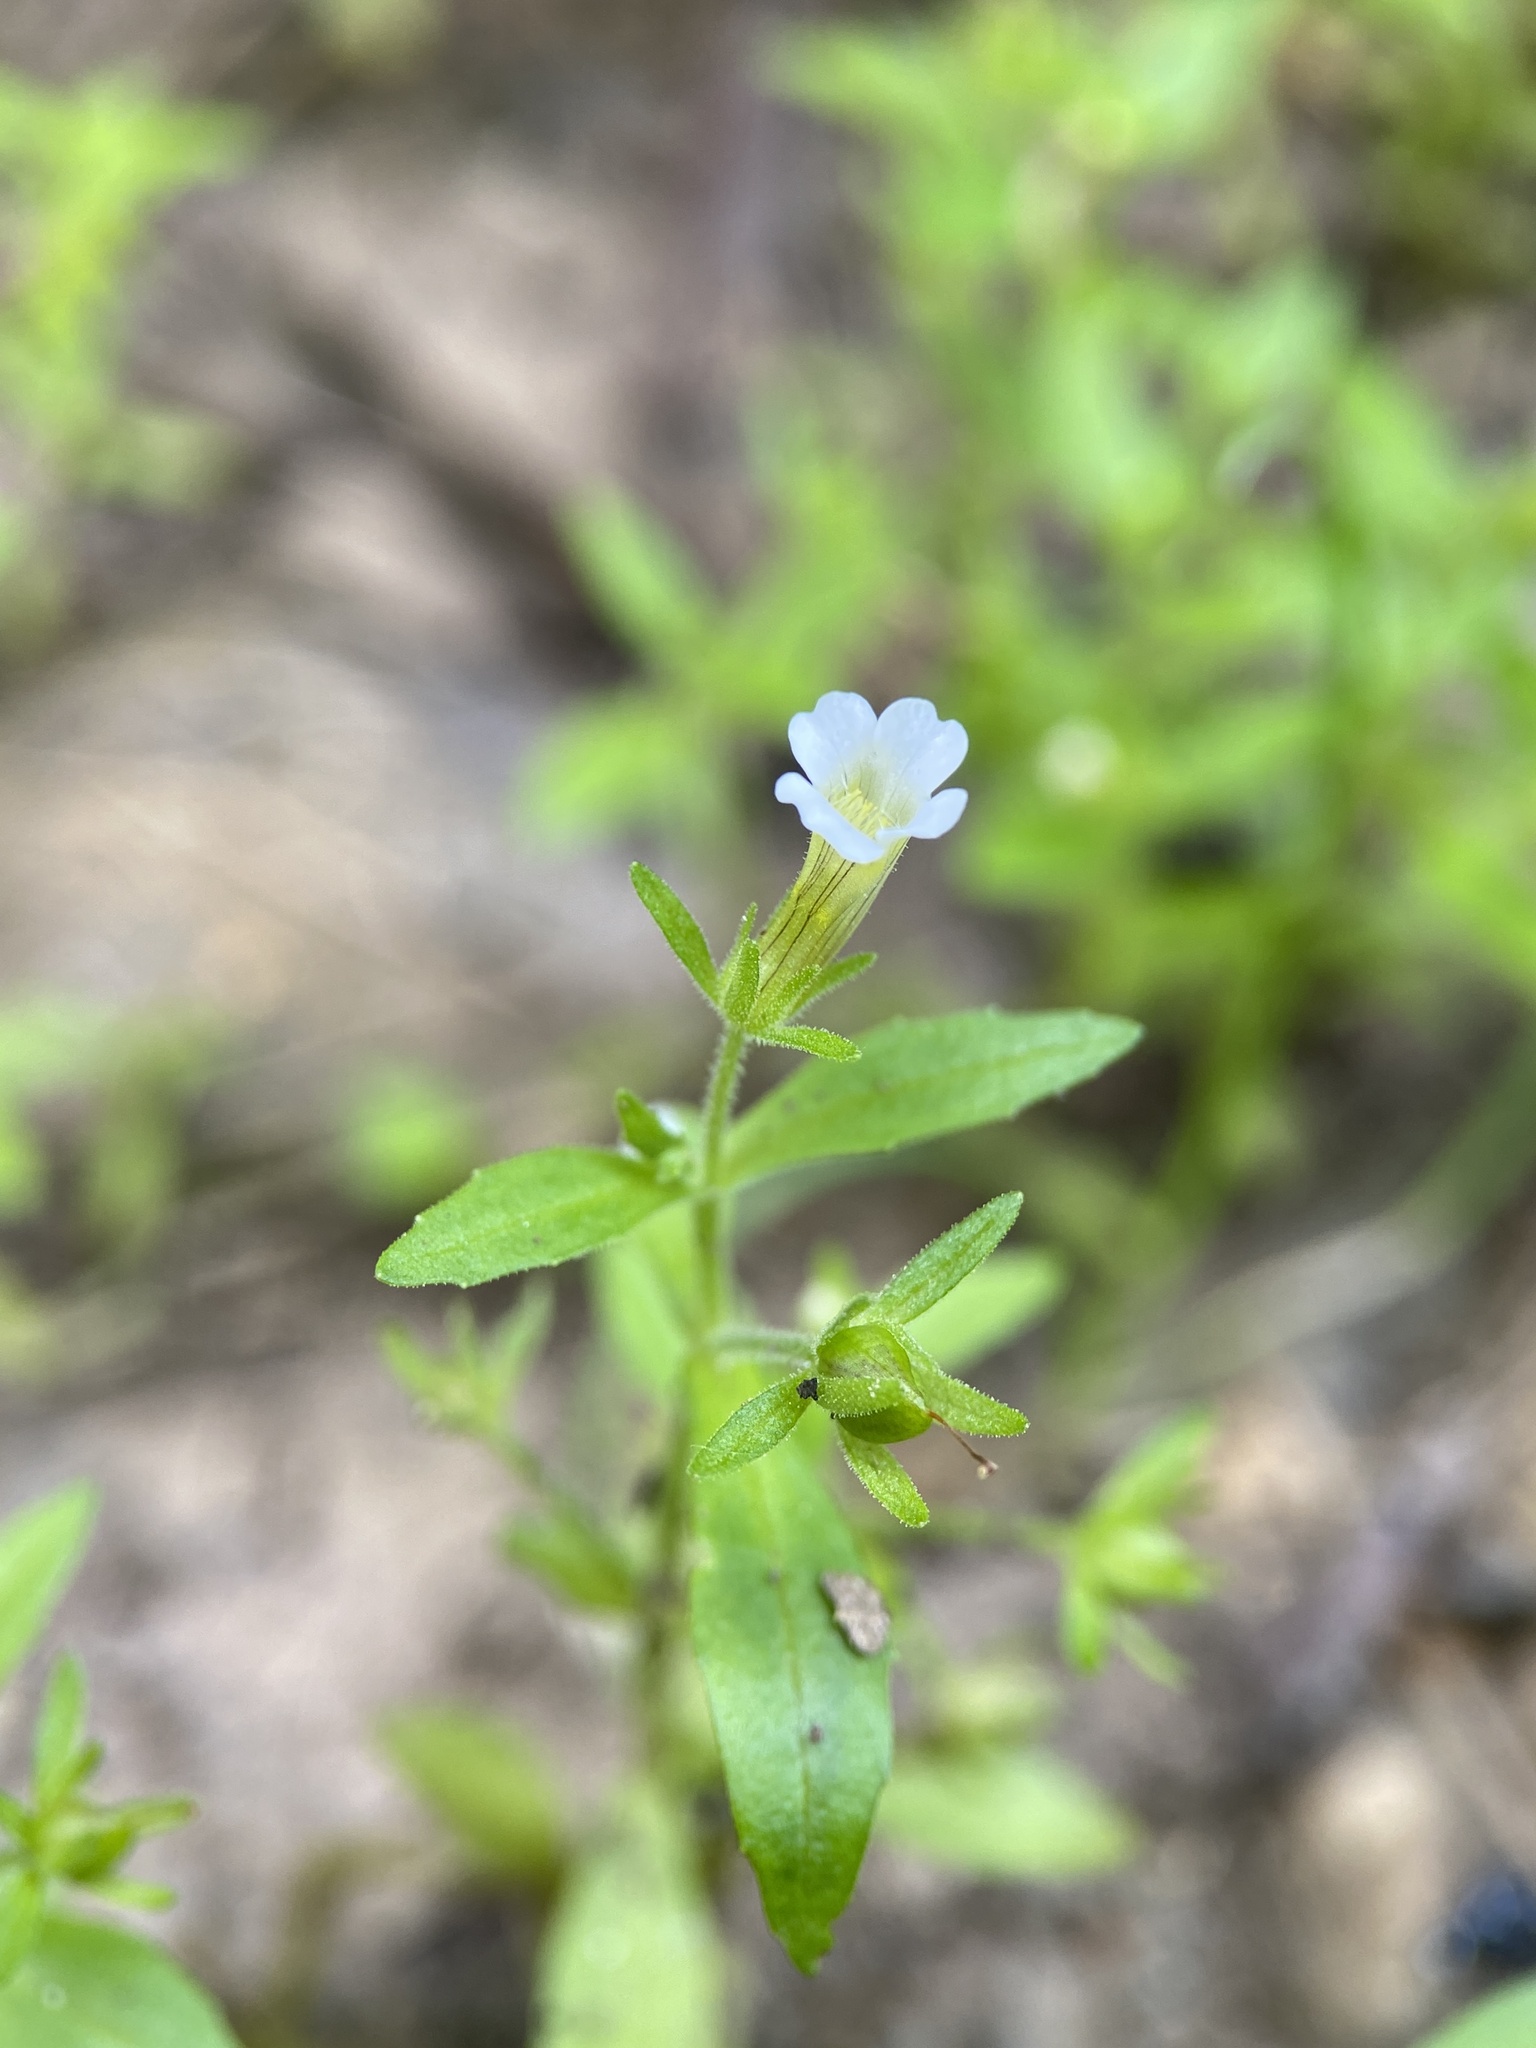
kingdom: Plantae
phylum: Tracheophyta
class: Magnoliopsida
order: Lamiales
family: Plantaginaceae
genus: Gratiola
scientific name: Gratiola neglecta
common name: American hedge-hyssop
